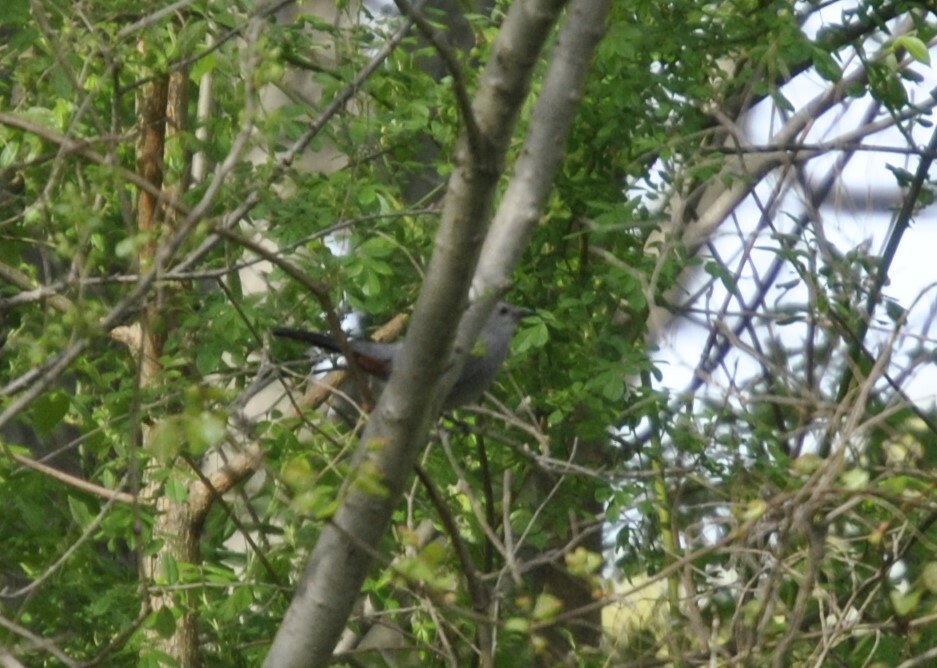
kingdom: Animalia
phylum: Chordata
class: Aves
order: Passeriformes
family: Mimidae
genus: Dumetella
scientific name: Dumetella carolinensis
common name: Gray catbird
